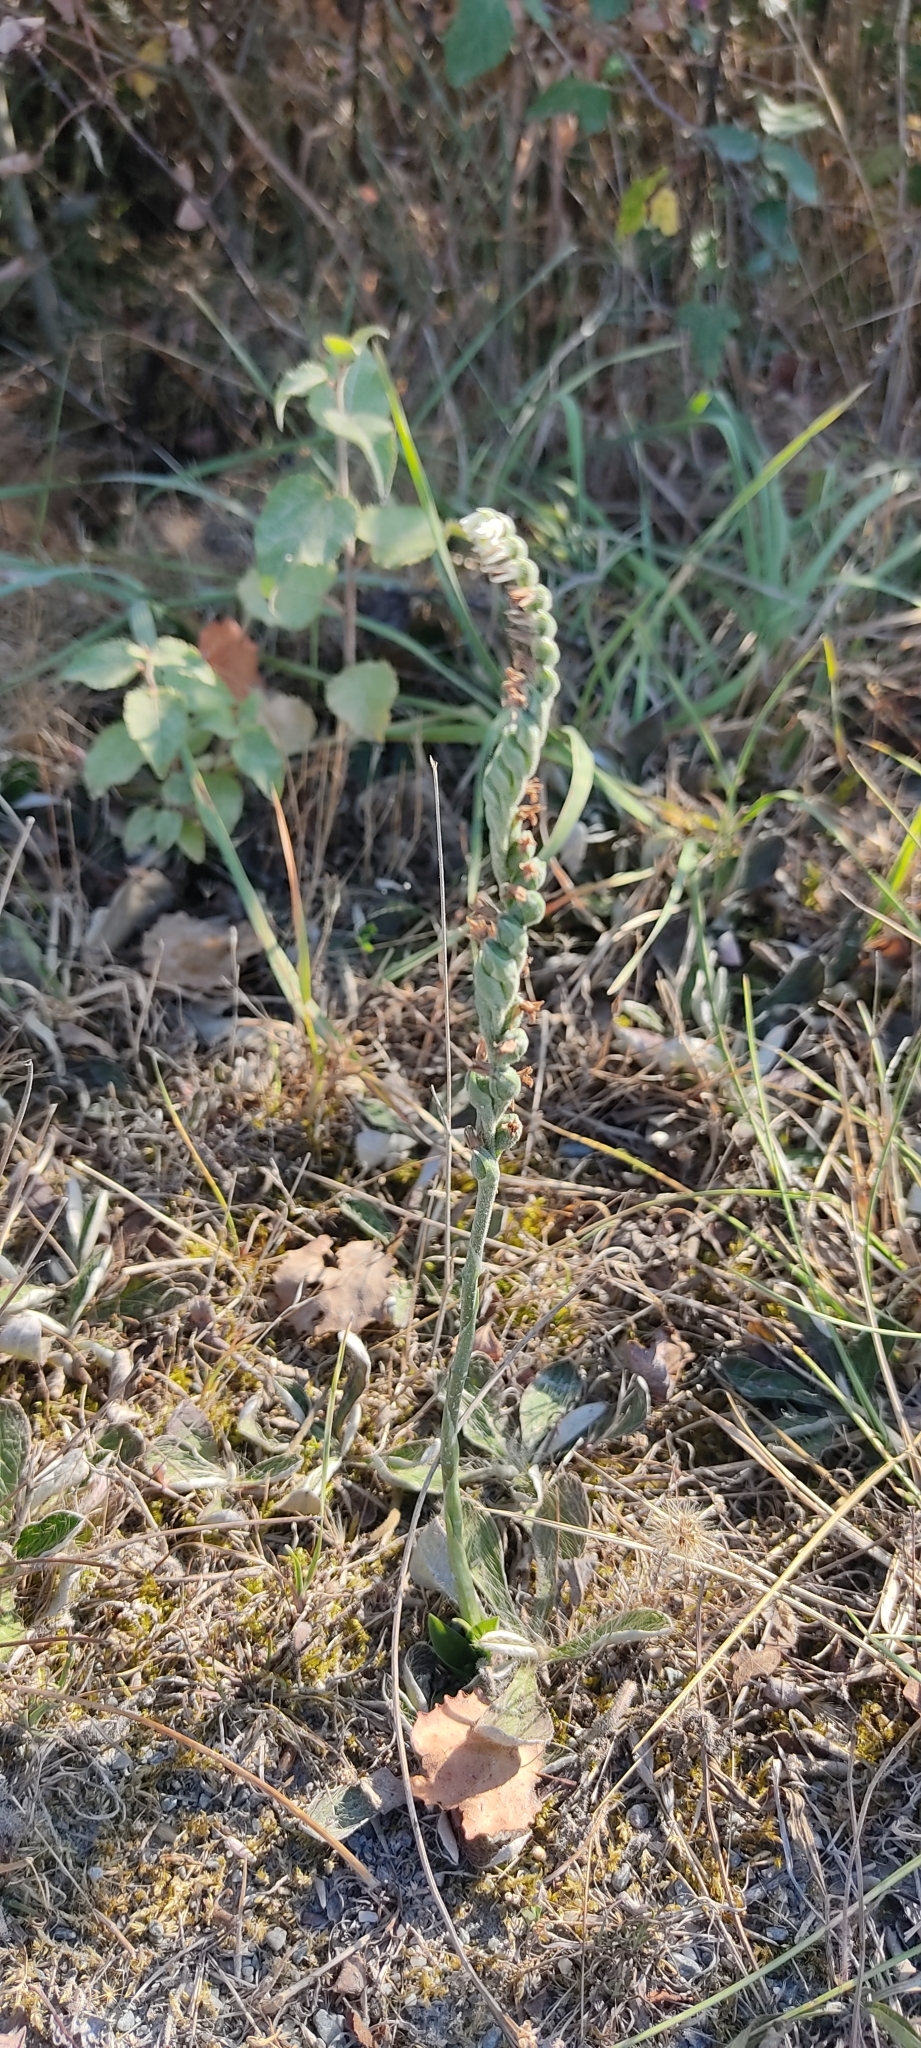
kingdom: Plantae
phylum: Tracheophyta
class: Liliopsida
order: Asparagales
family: Orchidaceae
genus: Spiranthes
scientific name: Spiranthes spiralis
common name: Autumn lady's-tresses
